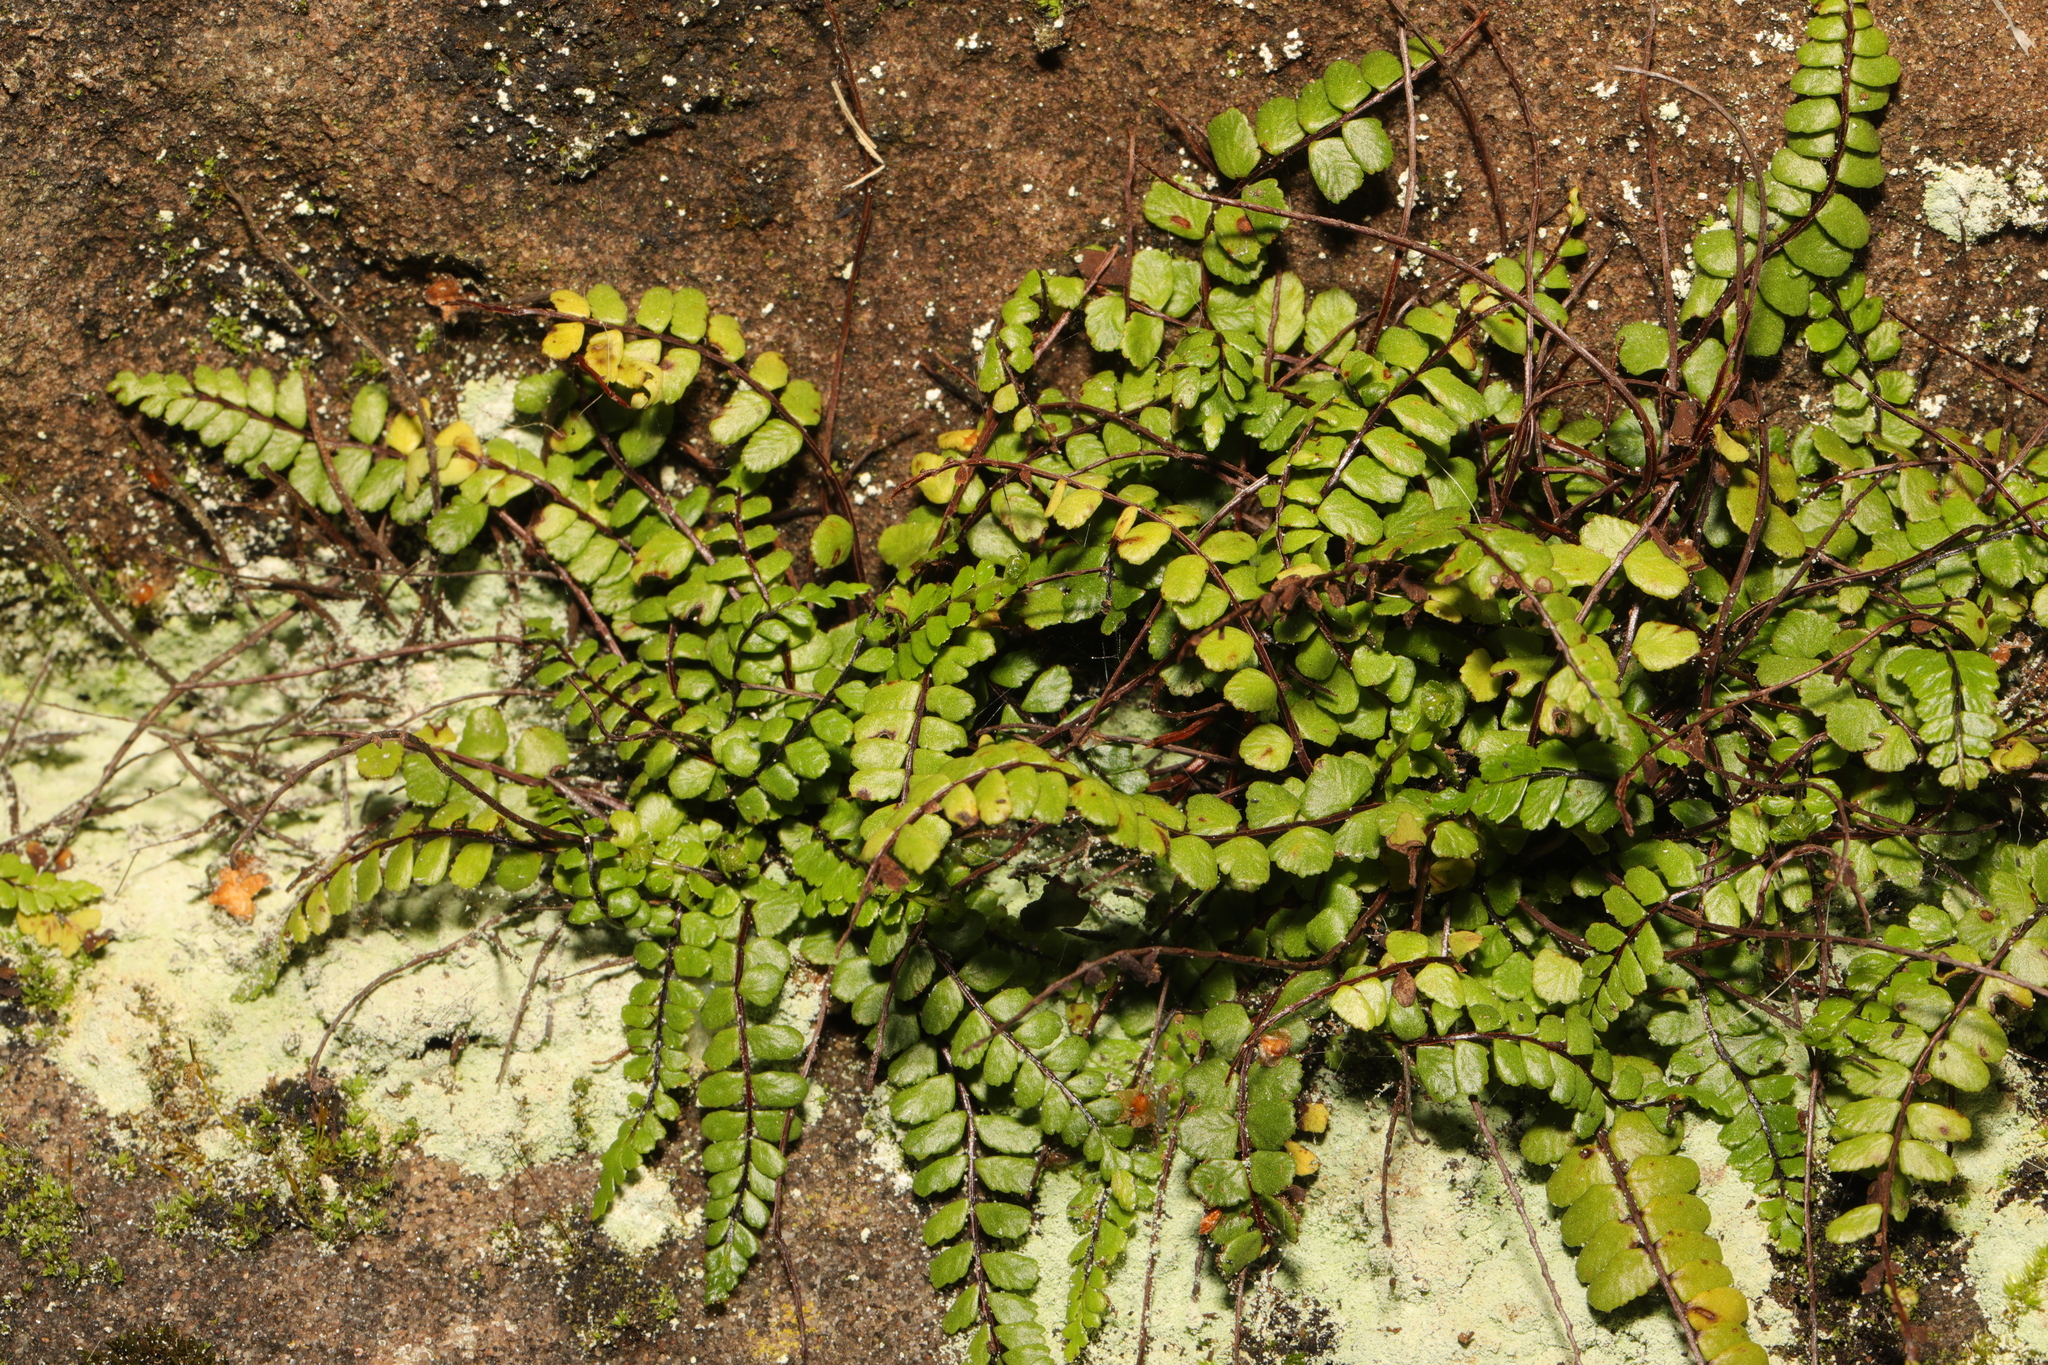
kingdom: Plantae
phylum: Tracheophyta
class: Polypodiopsida
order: Polypodiales
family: Aspleniaceae
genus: Asplenium
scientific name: Asplenium trichomanes
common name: Maidenhair spleenwort
